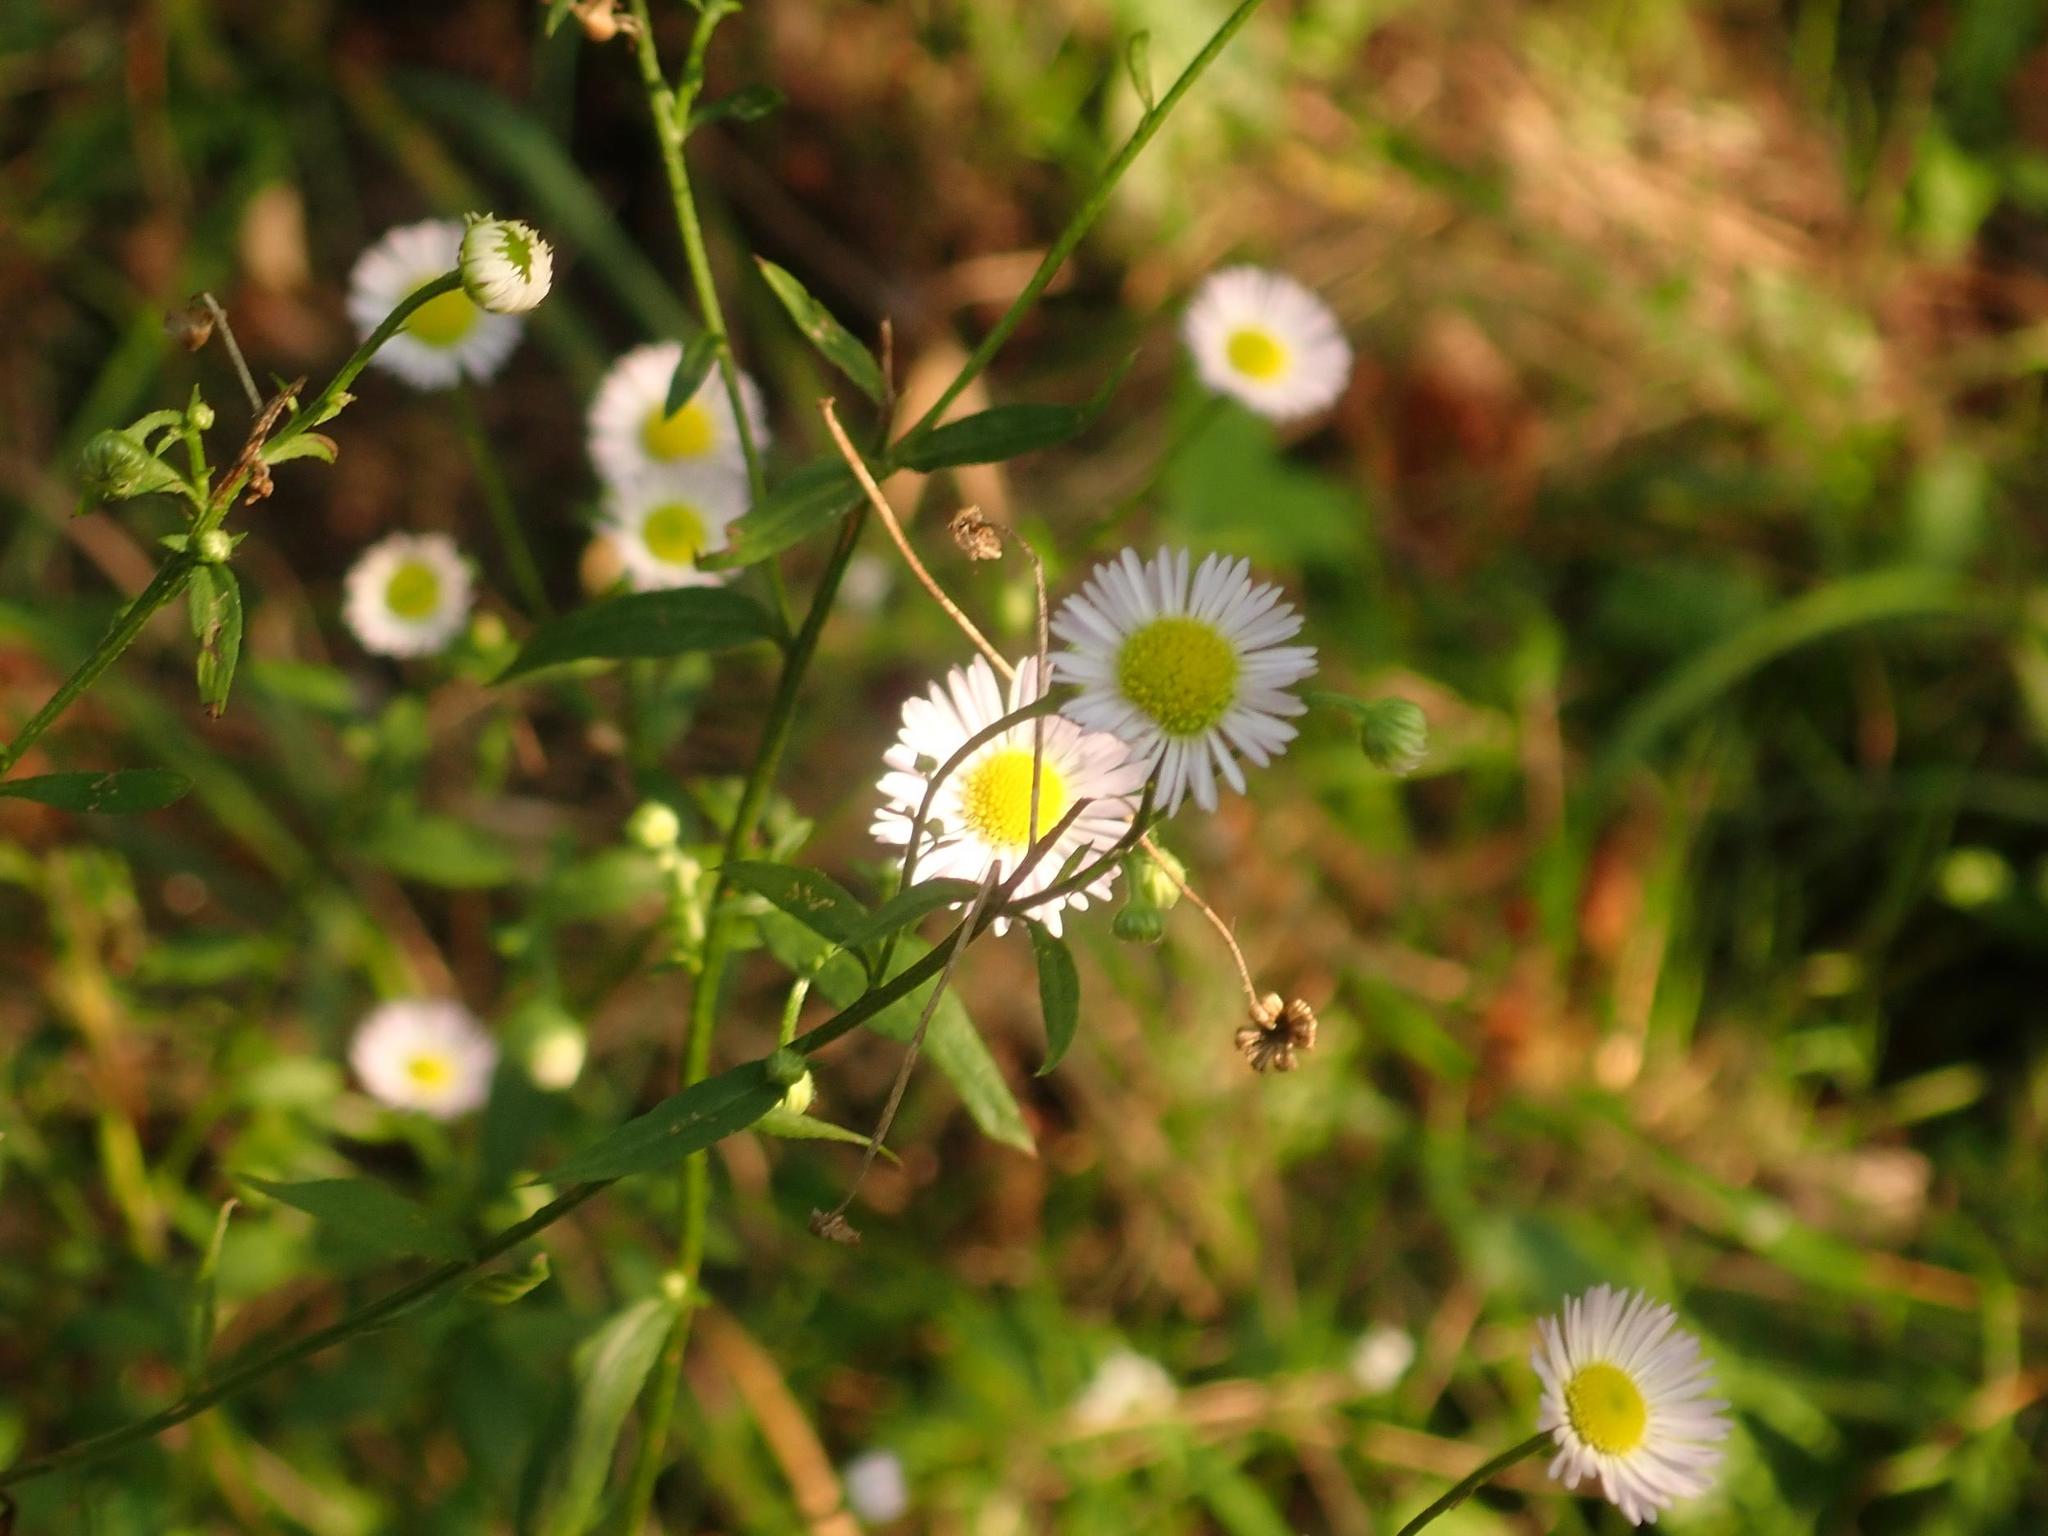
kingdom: Plantae
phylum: Tracheophyta
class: Magnoliopsida
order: Asterales
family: Asteraceae
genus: Erigeron
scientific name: Erigeron annuus
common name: Tall fleabane
